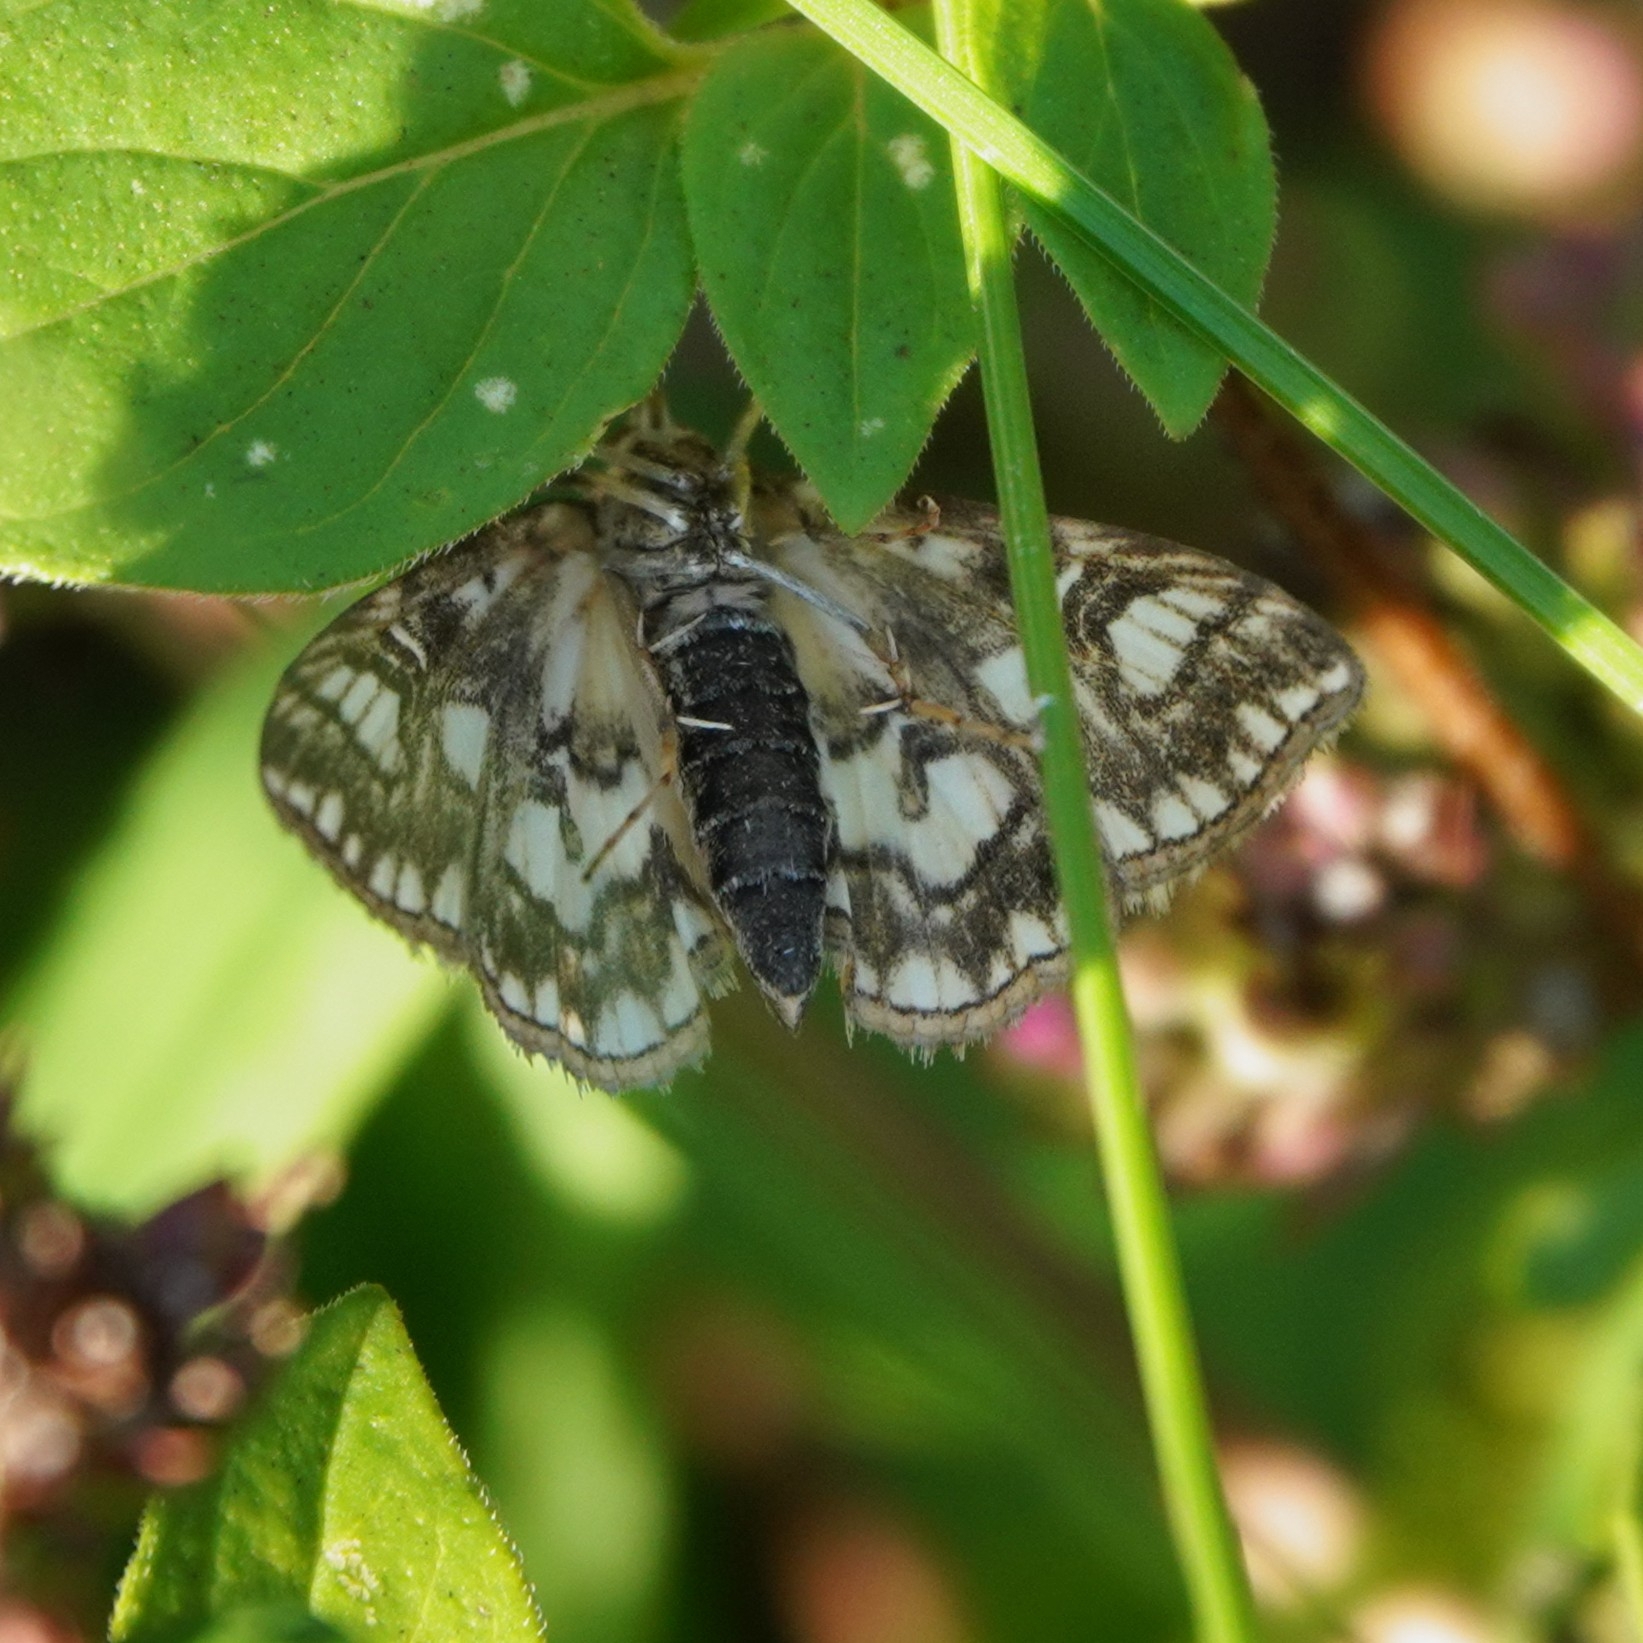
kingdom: Animalia
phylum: Arthropoda
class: Insecta
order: Lepidoptera
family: Crambidae
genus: Elophila
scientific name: Elophila nymphaeata
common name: Brown china-mark
